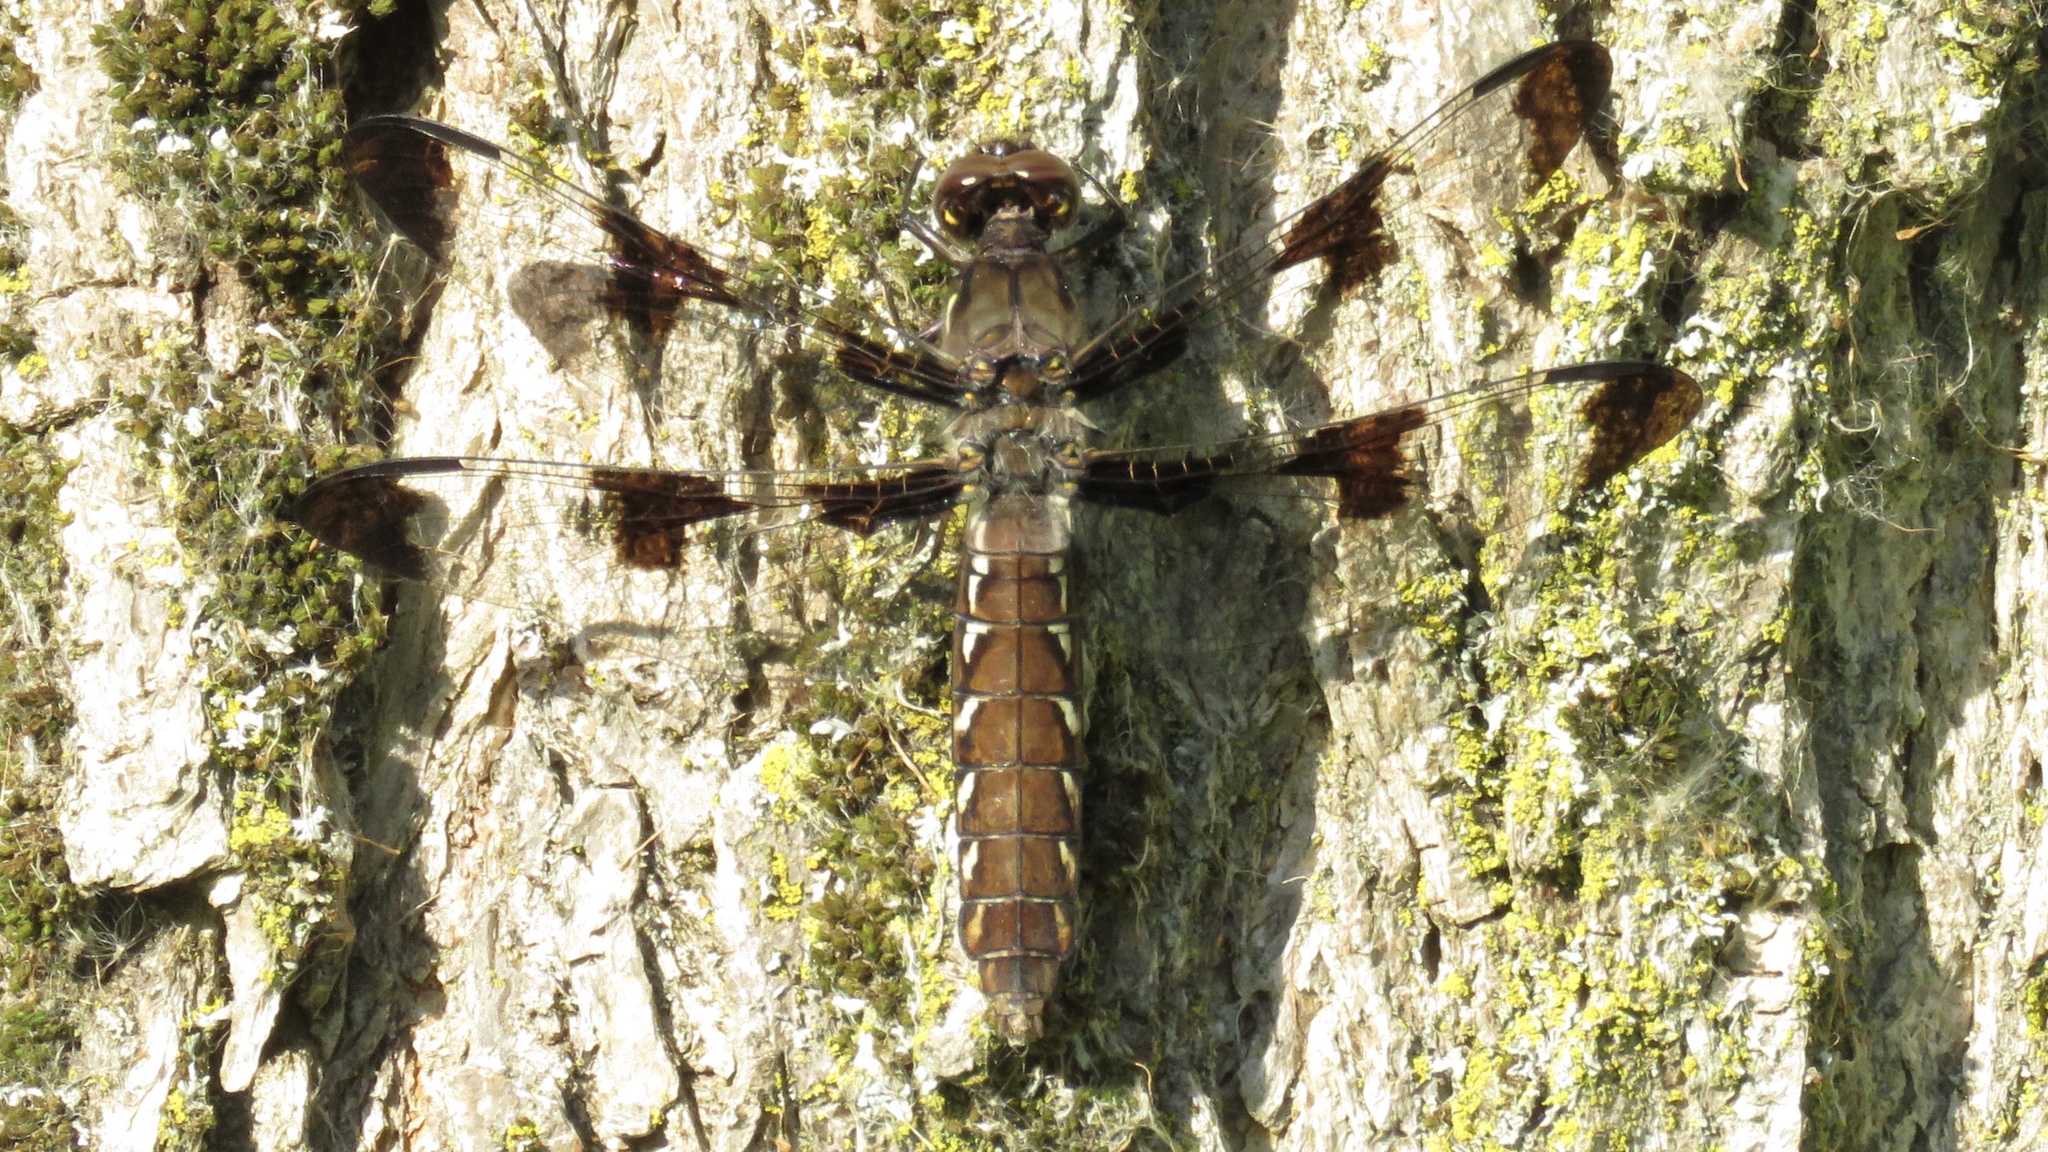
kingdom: Animalia
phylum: Arthropoda
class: Insecta
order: Odonata
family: Libellulidae
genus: Plathemis
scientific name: Plathemis lydia
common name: Common whitetail
